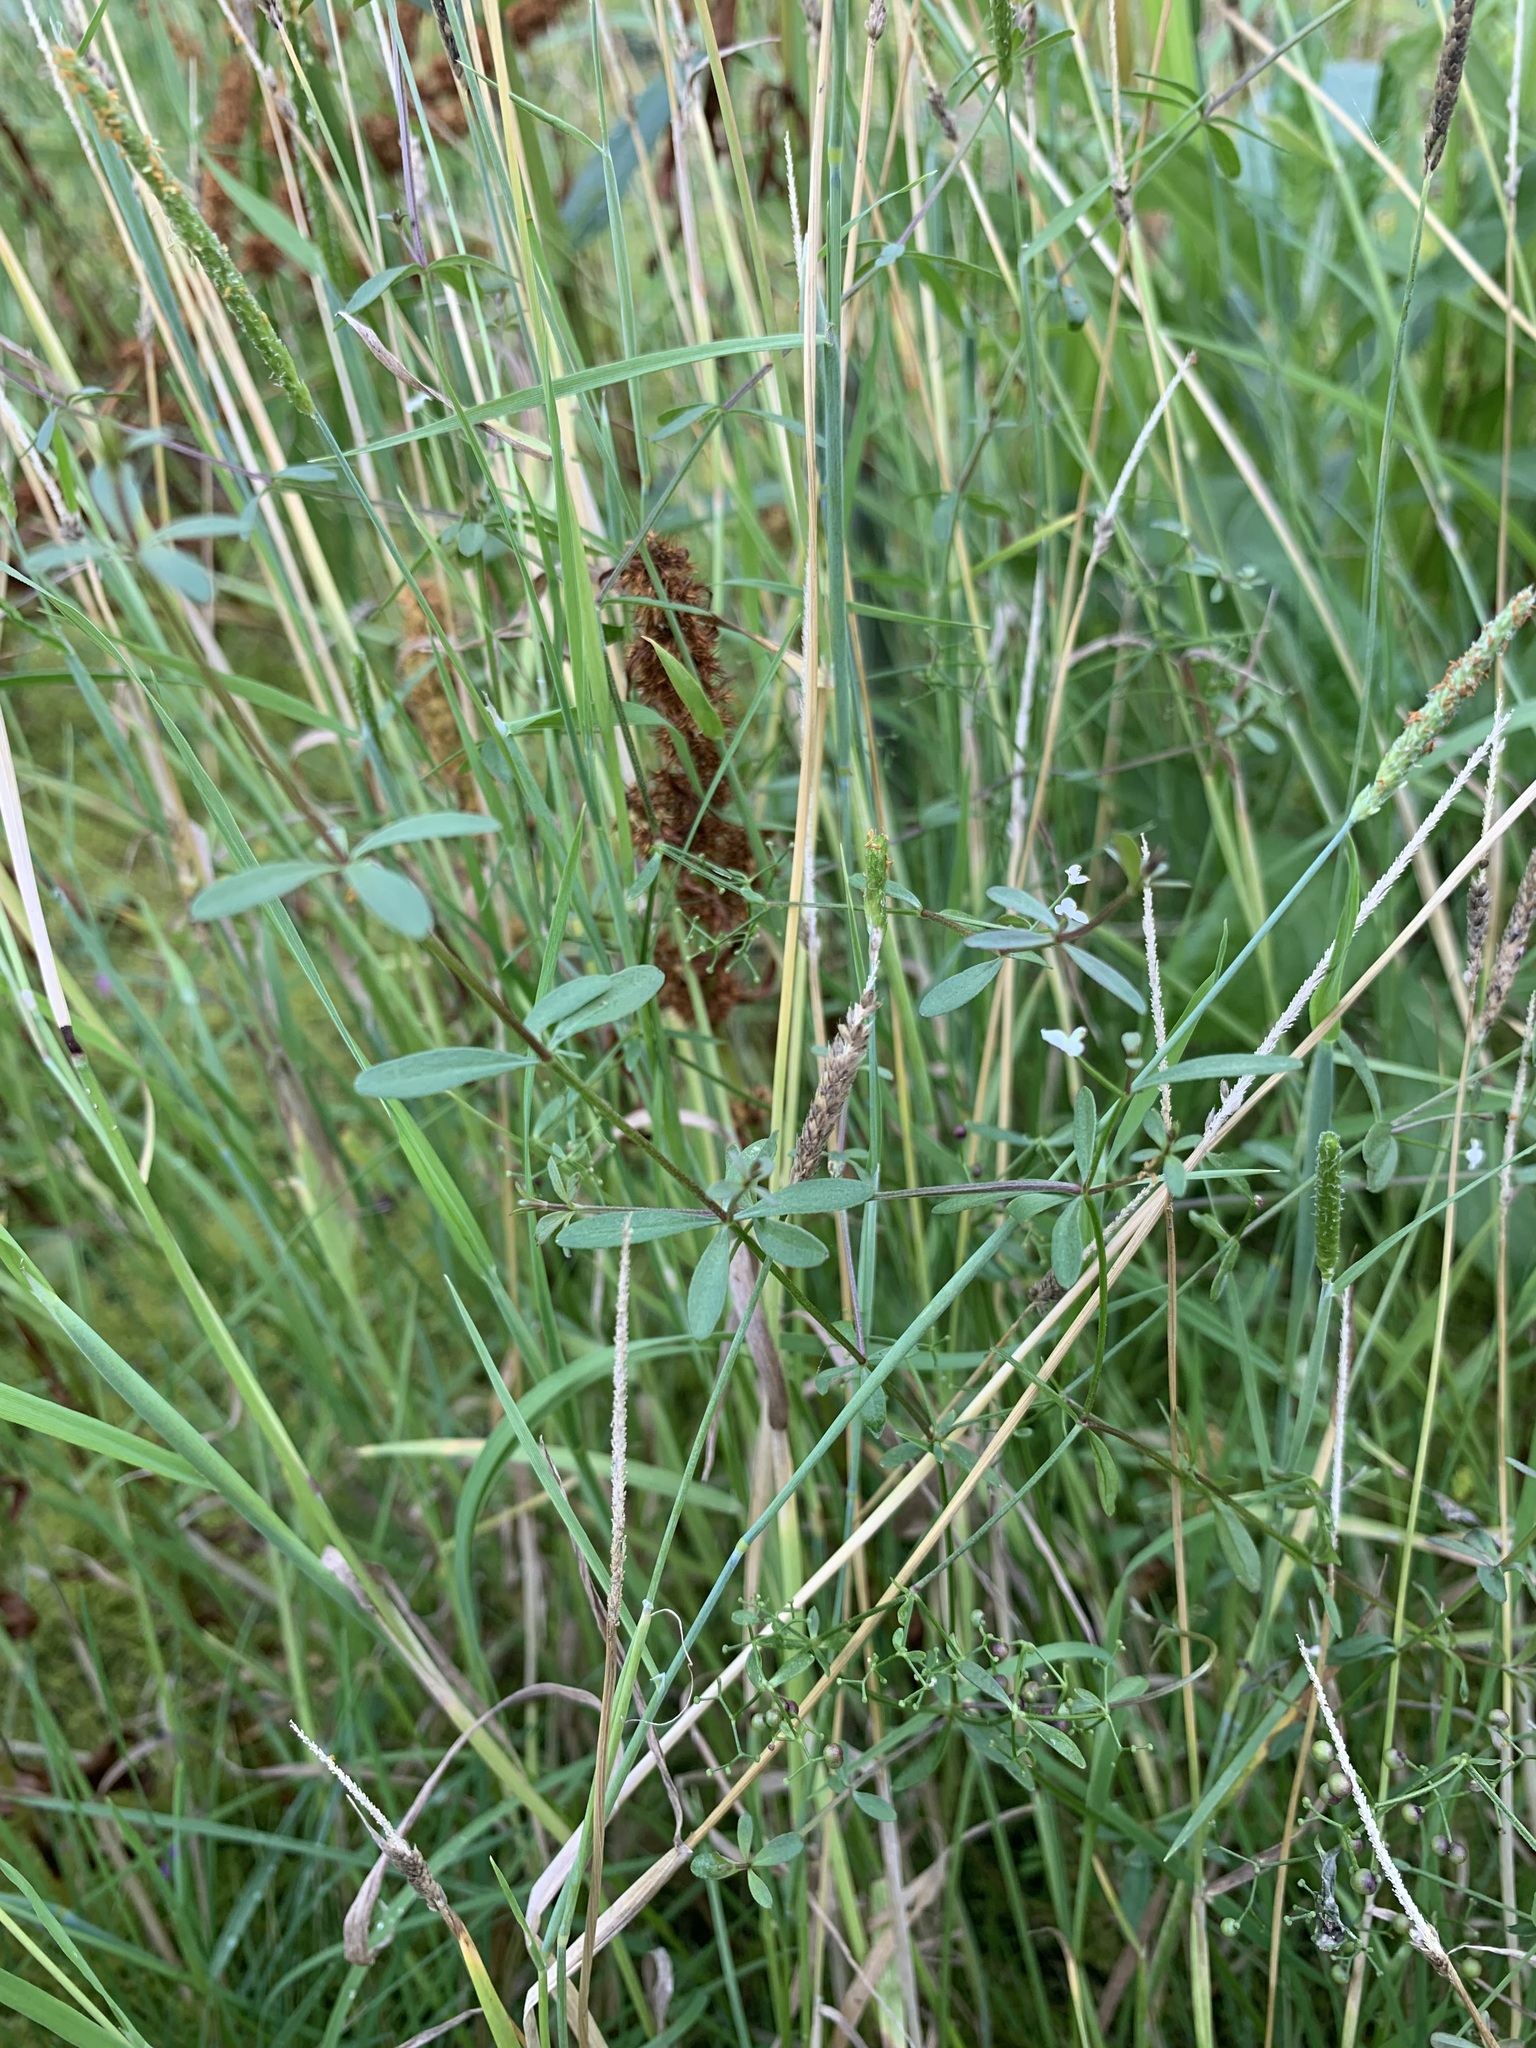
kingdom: Plantae
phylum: Tracheophyta
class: Magnoliopsida
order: Gentianales
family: Rubiaceae
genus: Galium
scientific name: Galium trifidum
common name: Small bedstraw
